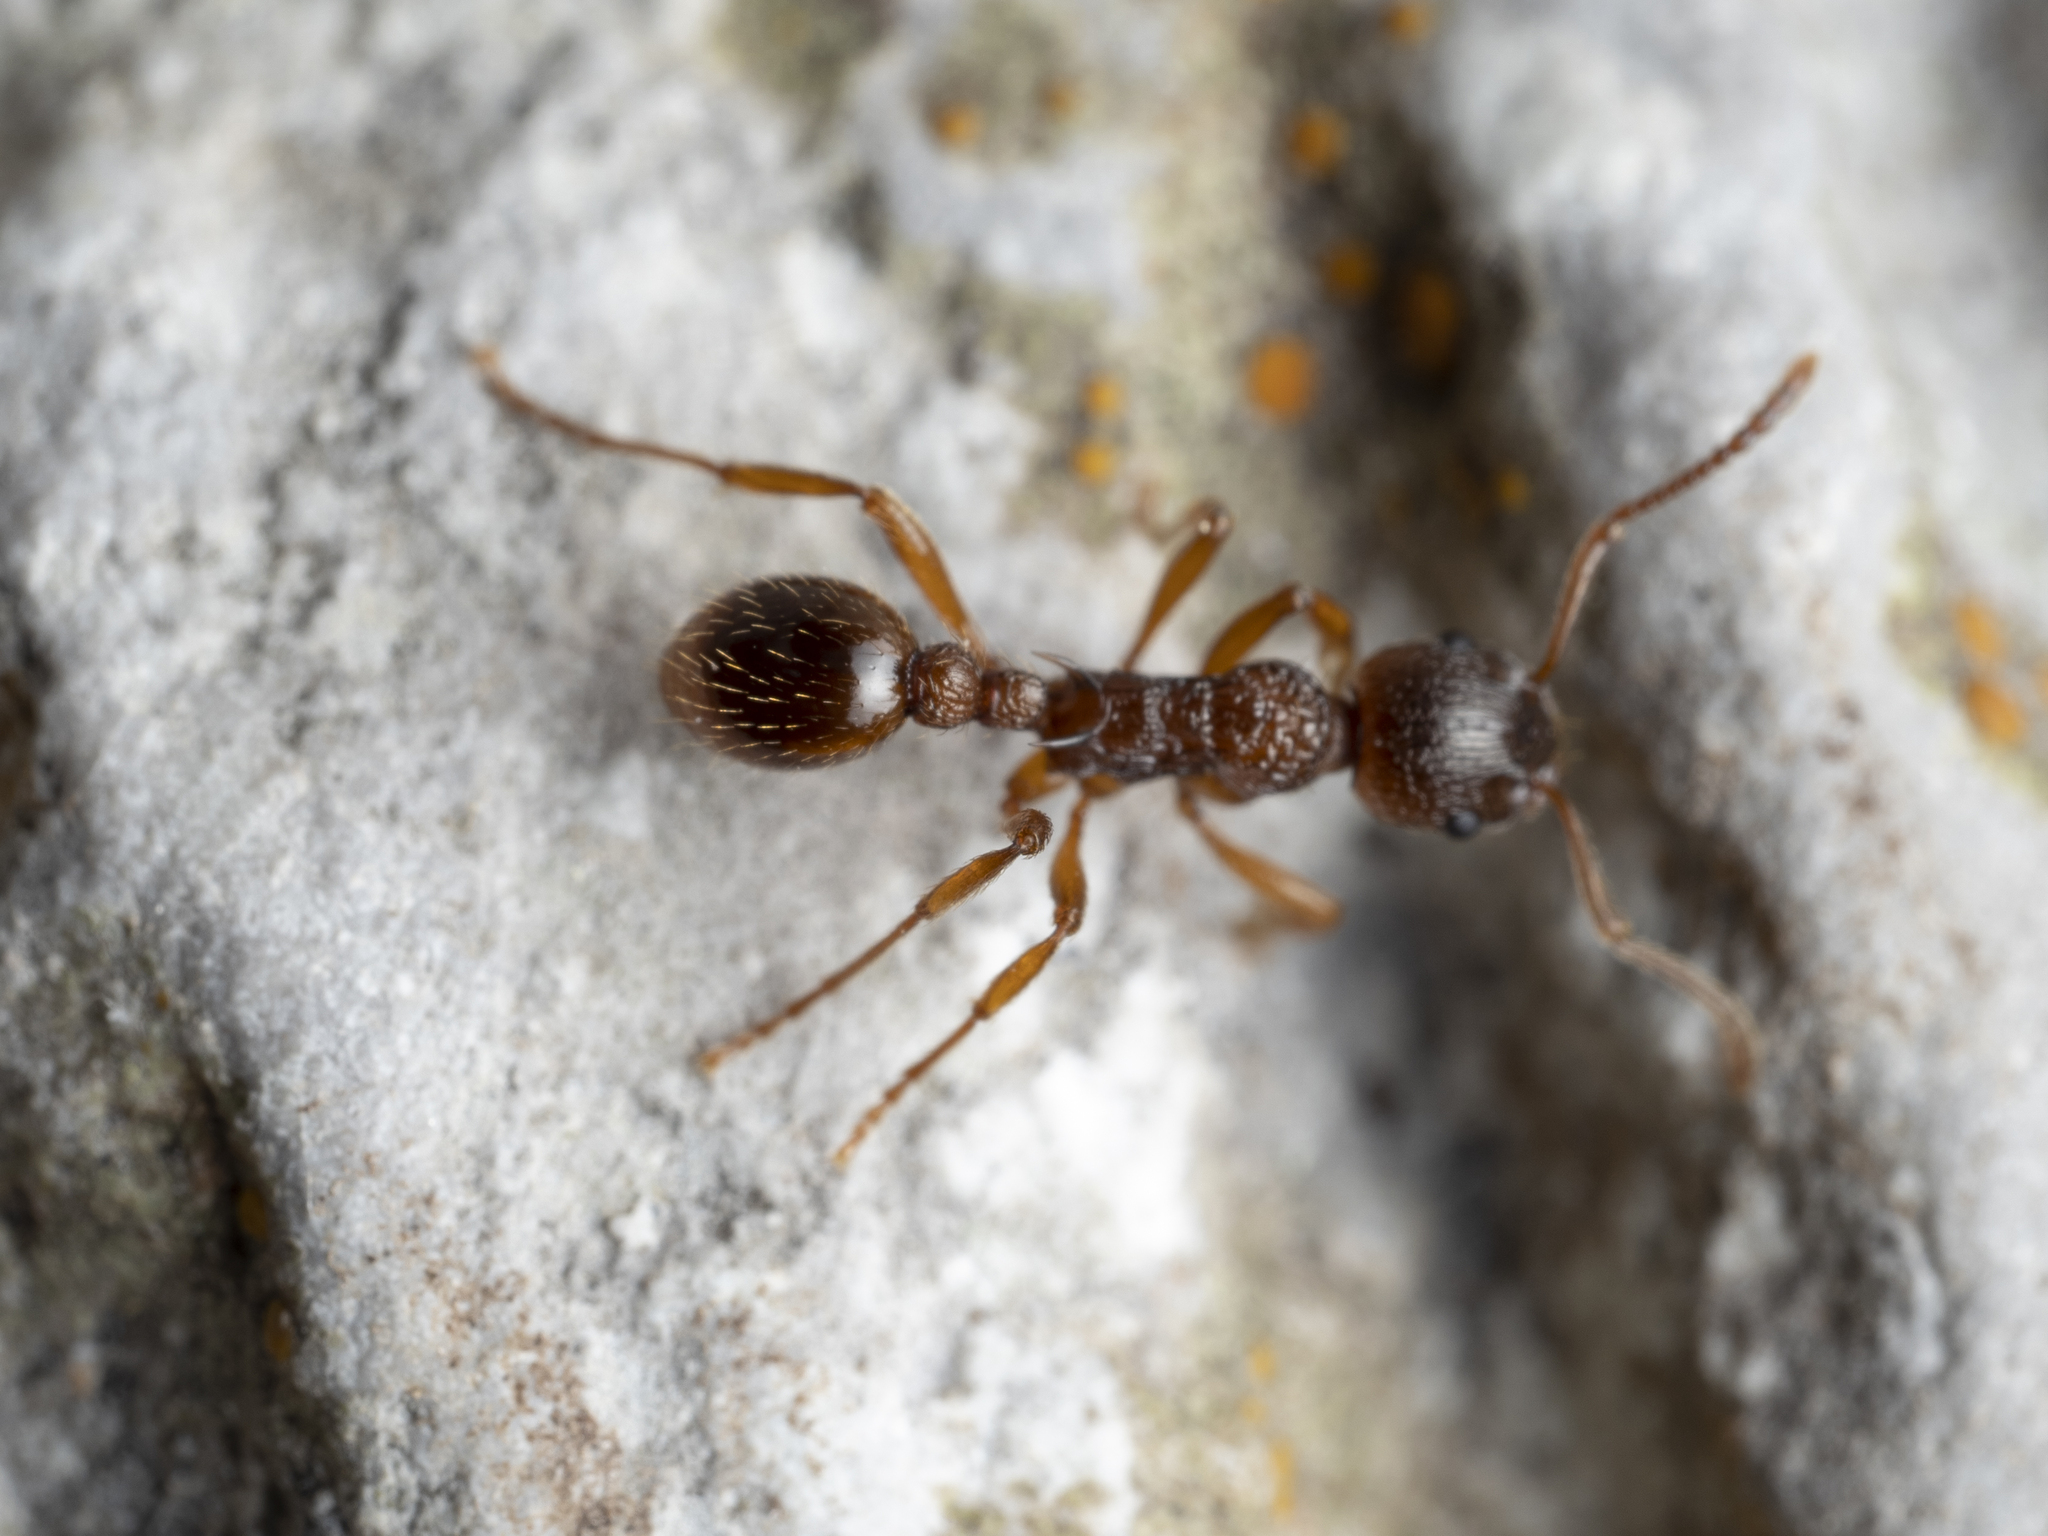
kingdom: Animalia
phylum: Arthropoda
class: Insecta
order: Hymenoptera
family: Formicidae
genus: Myrmica
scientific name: Myrmica ruginodis
